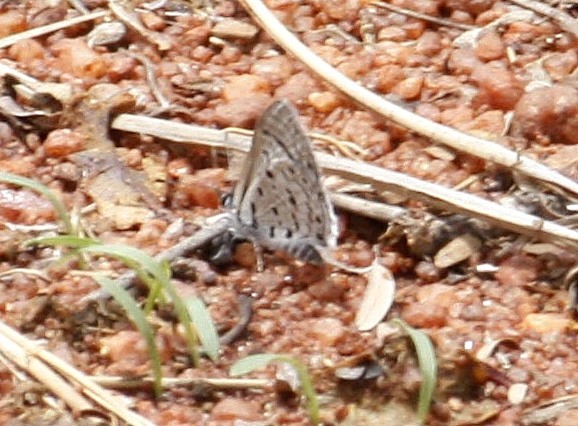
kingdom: Animalia
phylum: Arthropoda
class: Insecta
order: Lepidoptera
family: Lycaenidae
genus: Azanus
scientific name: Azanus moriqua
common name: Thorn-tree babul blue
